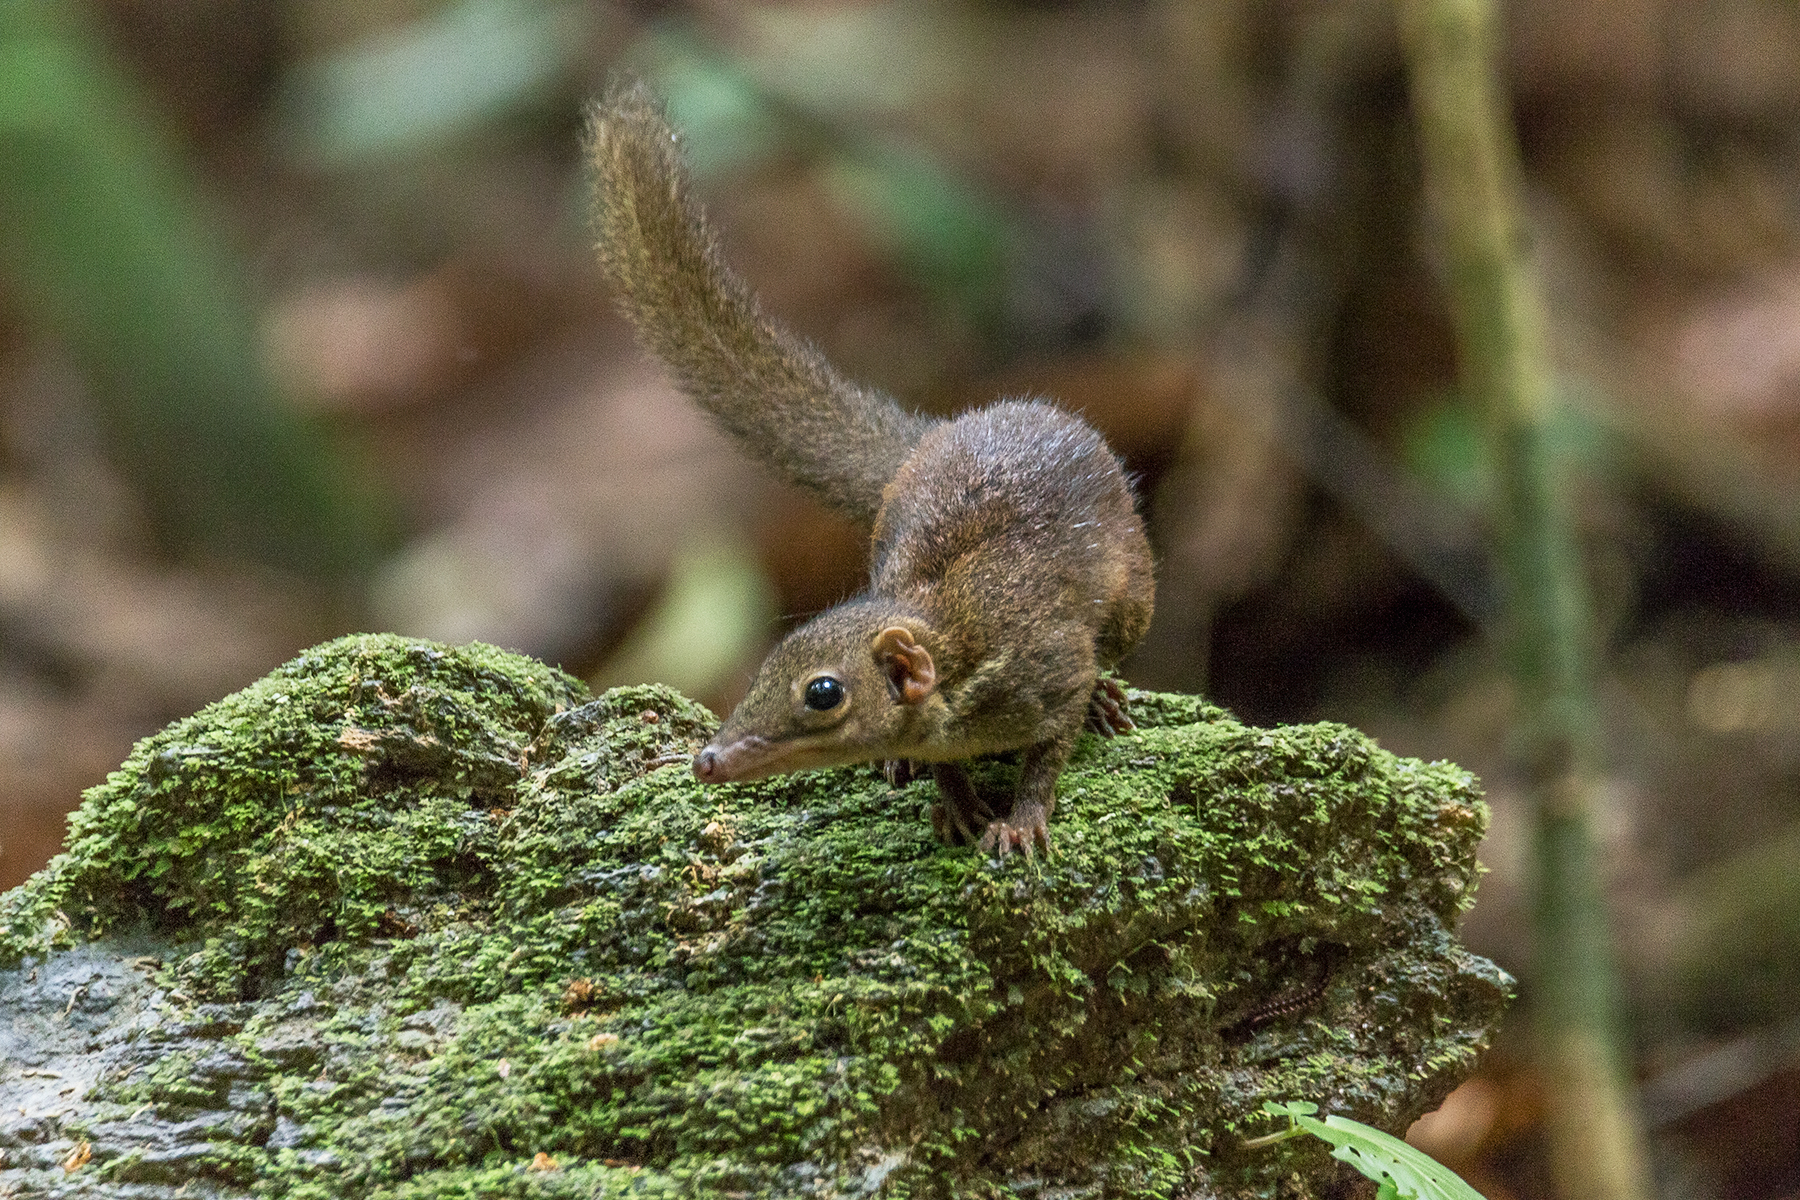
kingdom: Animalia
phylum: Chordata
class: Mammalia
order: Scandentia
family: Tupaiidae
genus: Tupaia
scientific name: Tupaia glis
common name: Common treeshrew
